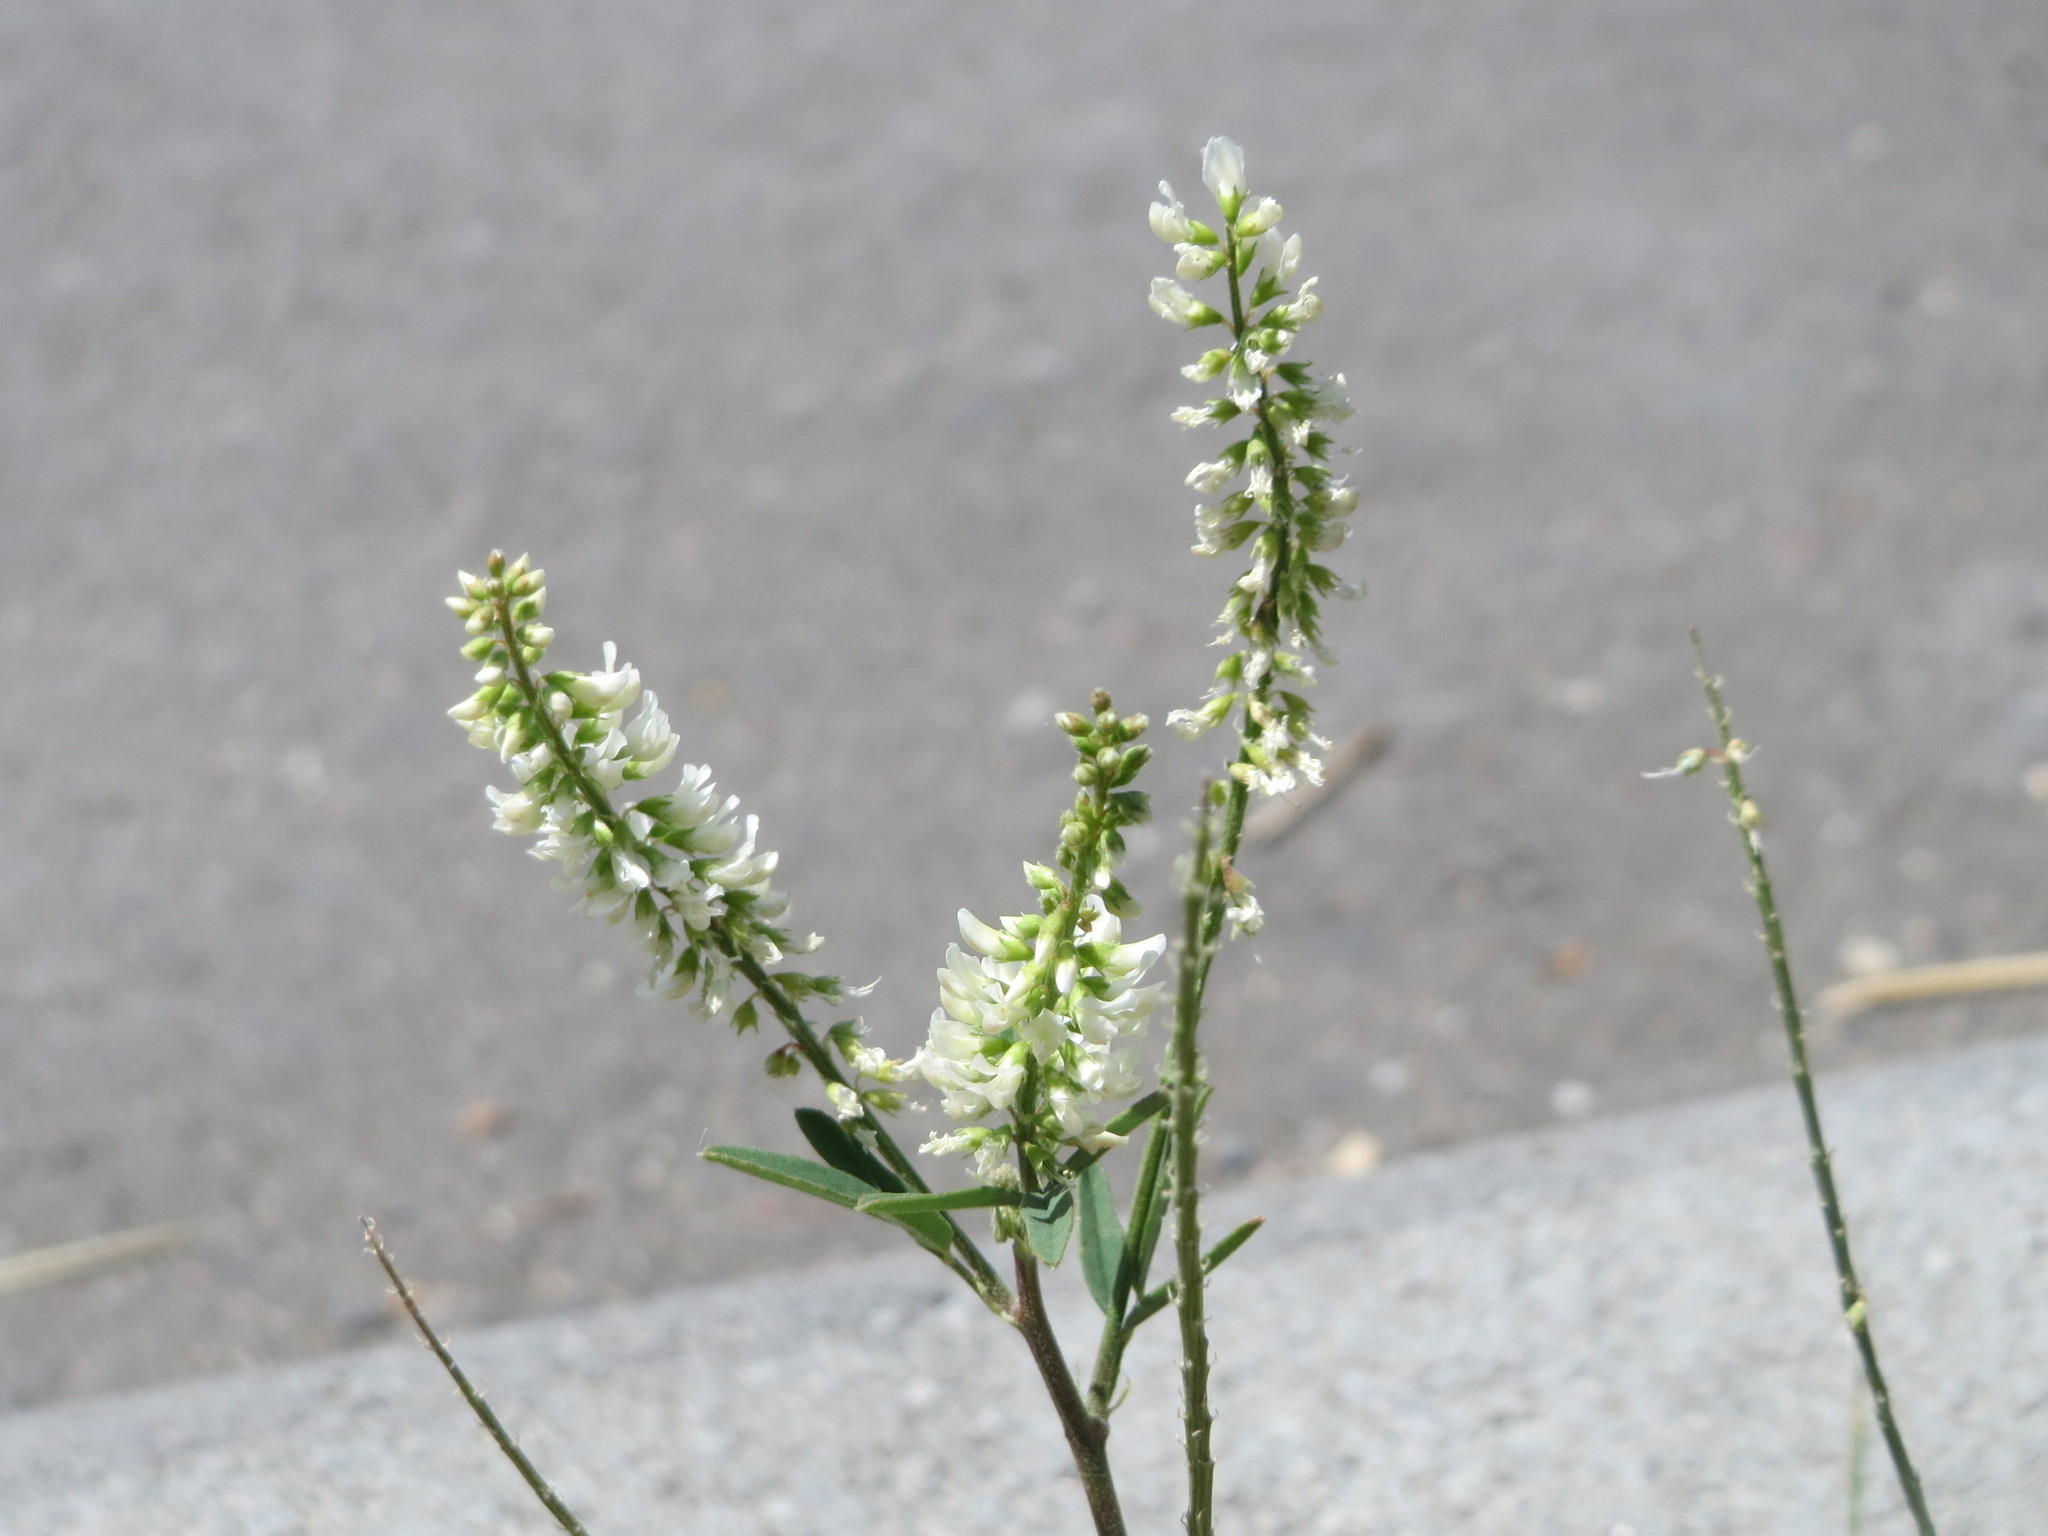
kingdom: Plantae
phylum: Tracheophyta
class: Magnoliopsida
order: Fabales
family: Fabaceae
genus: Melilotus
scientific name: Melilotus albus
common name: White melilot
